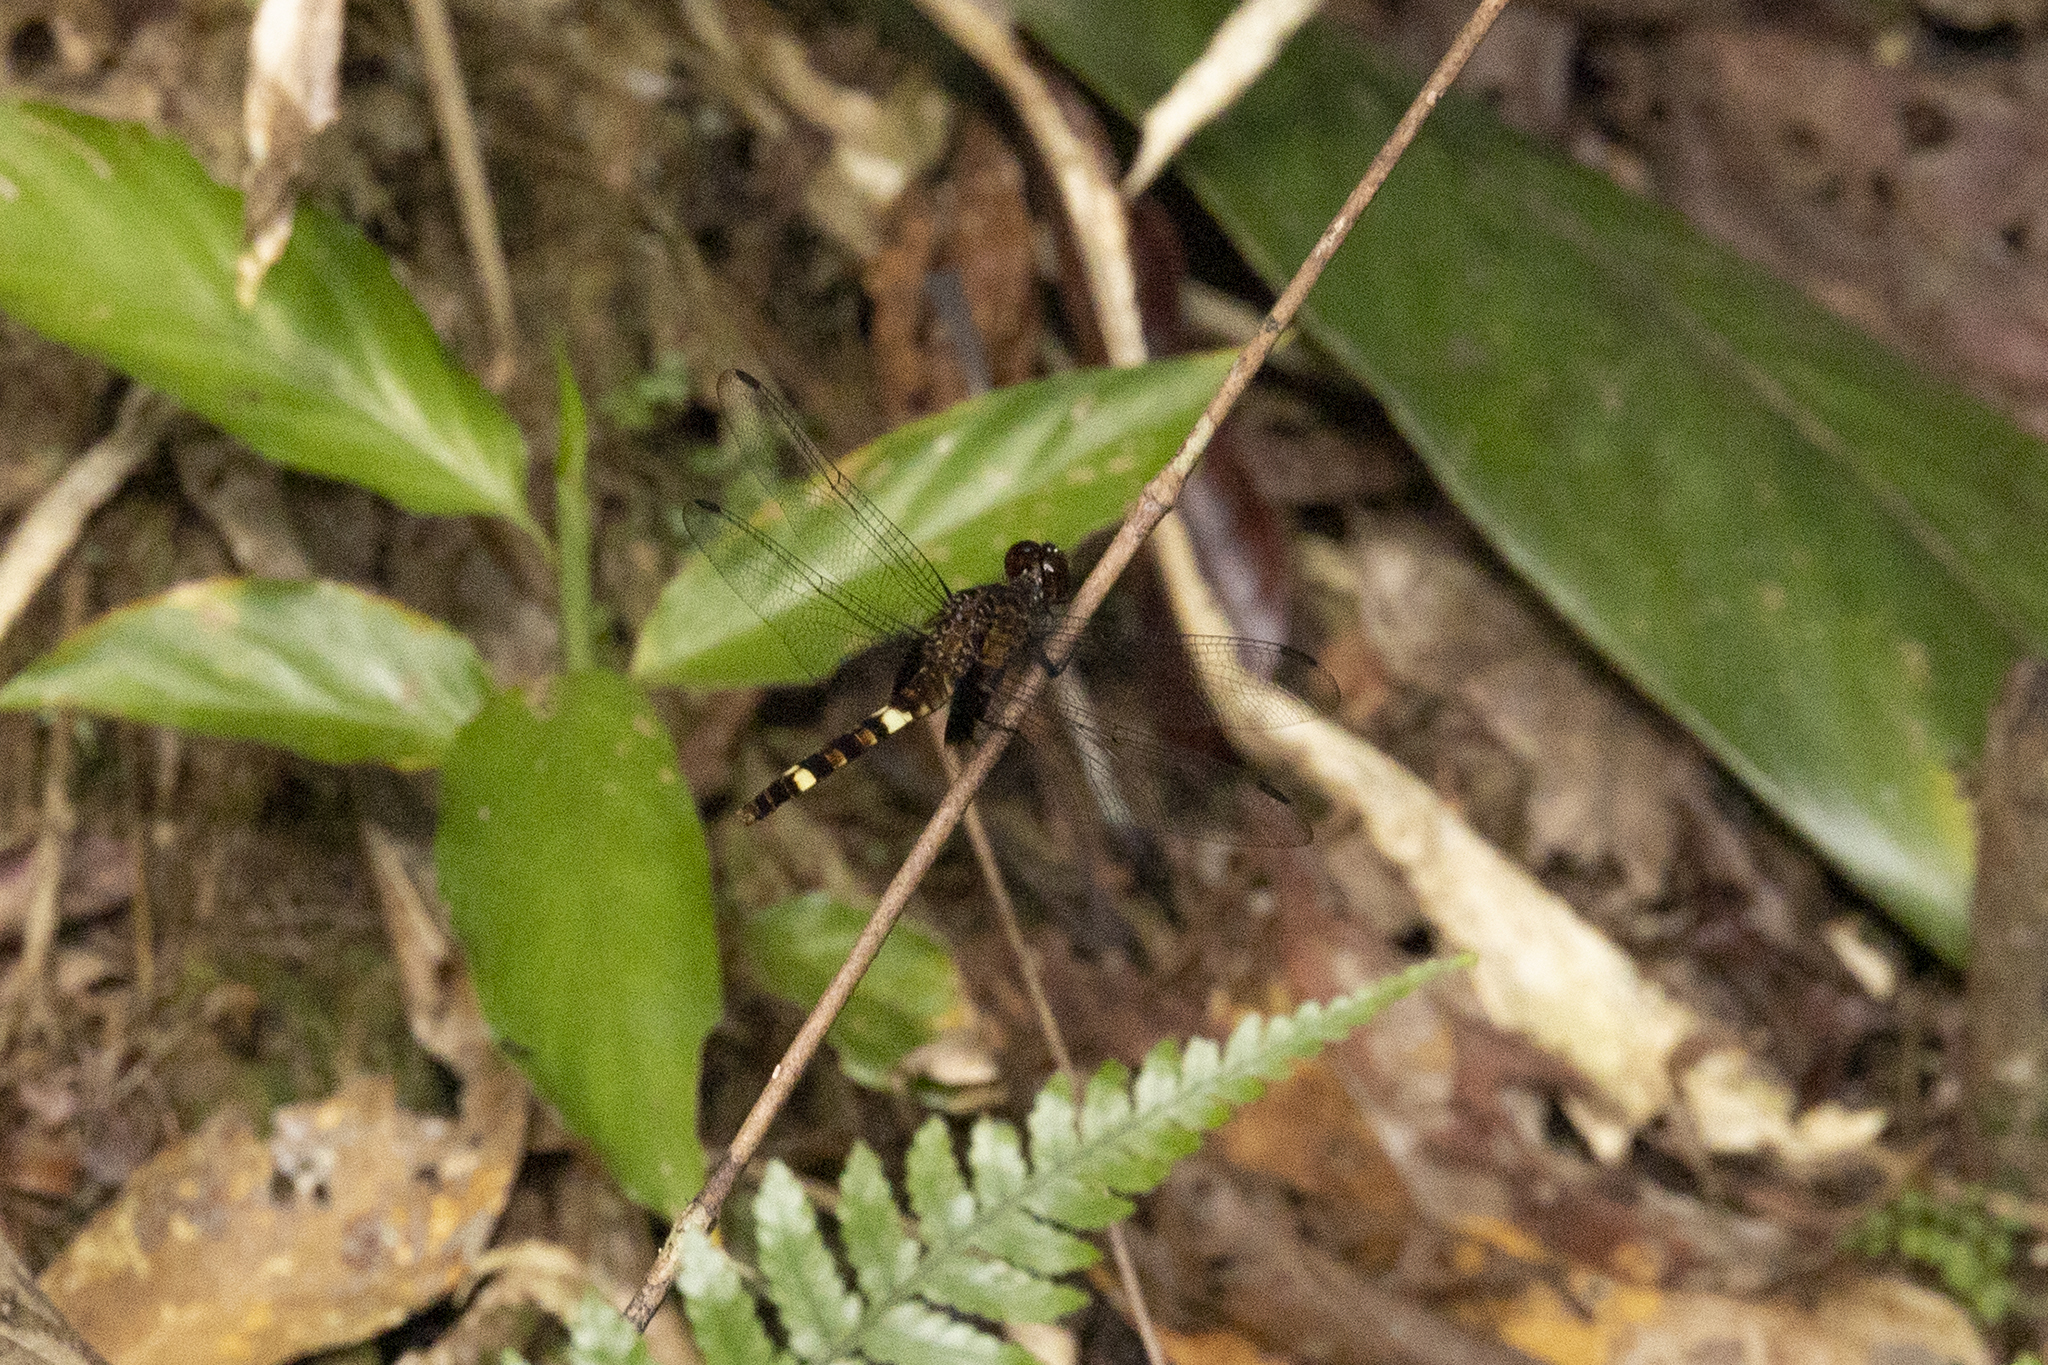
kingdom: Animalia
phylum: Arthropoda
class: Insecta
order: Odonata
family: Libellulidae
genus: Erythemis
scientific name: Erythemis attala
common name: Black pondhawk
